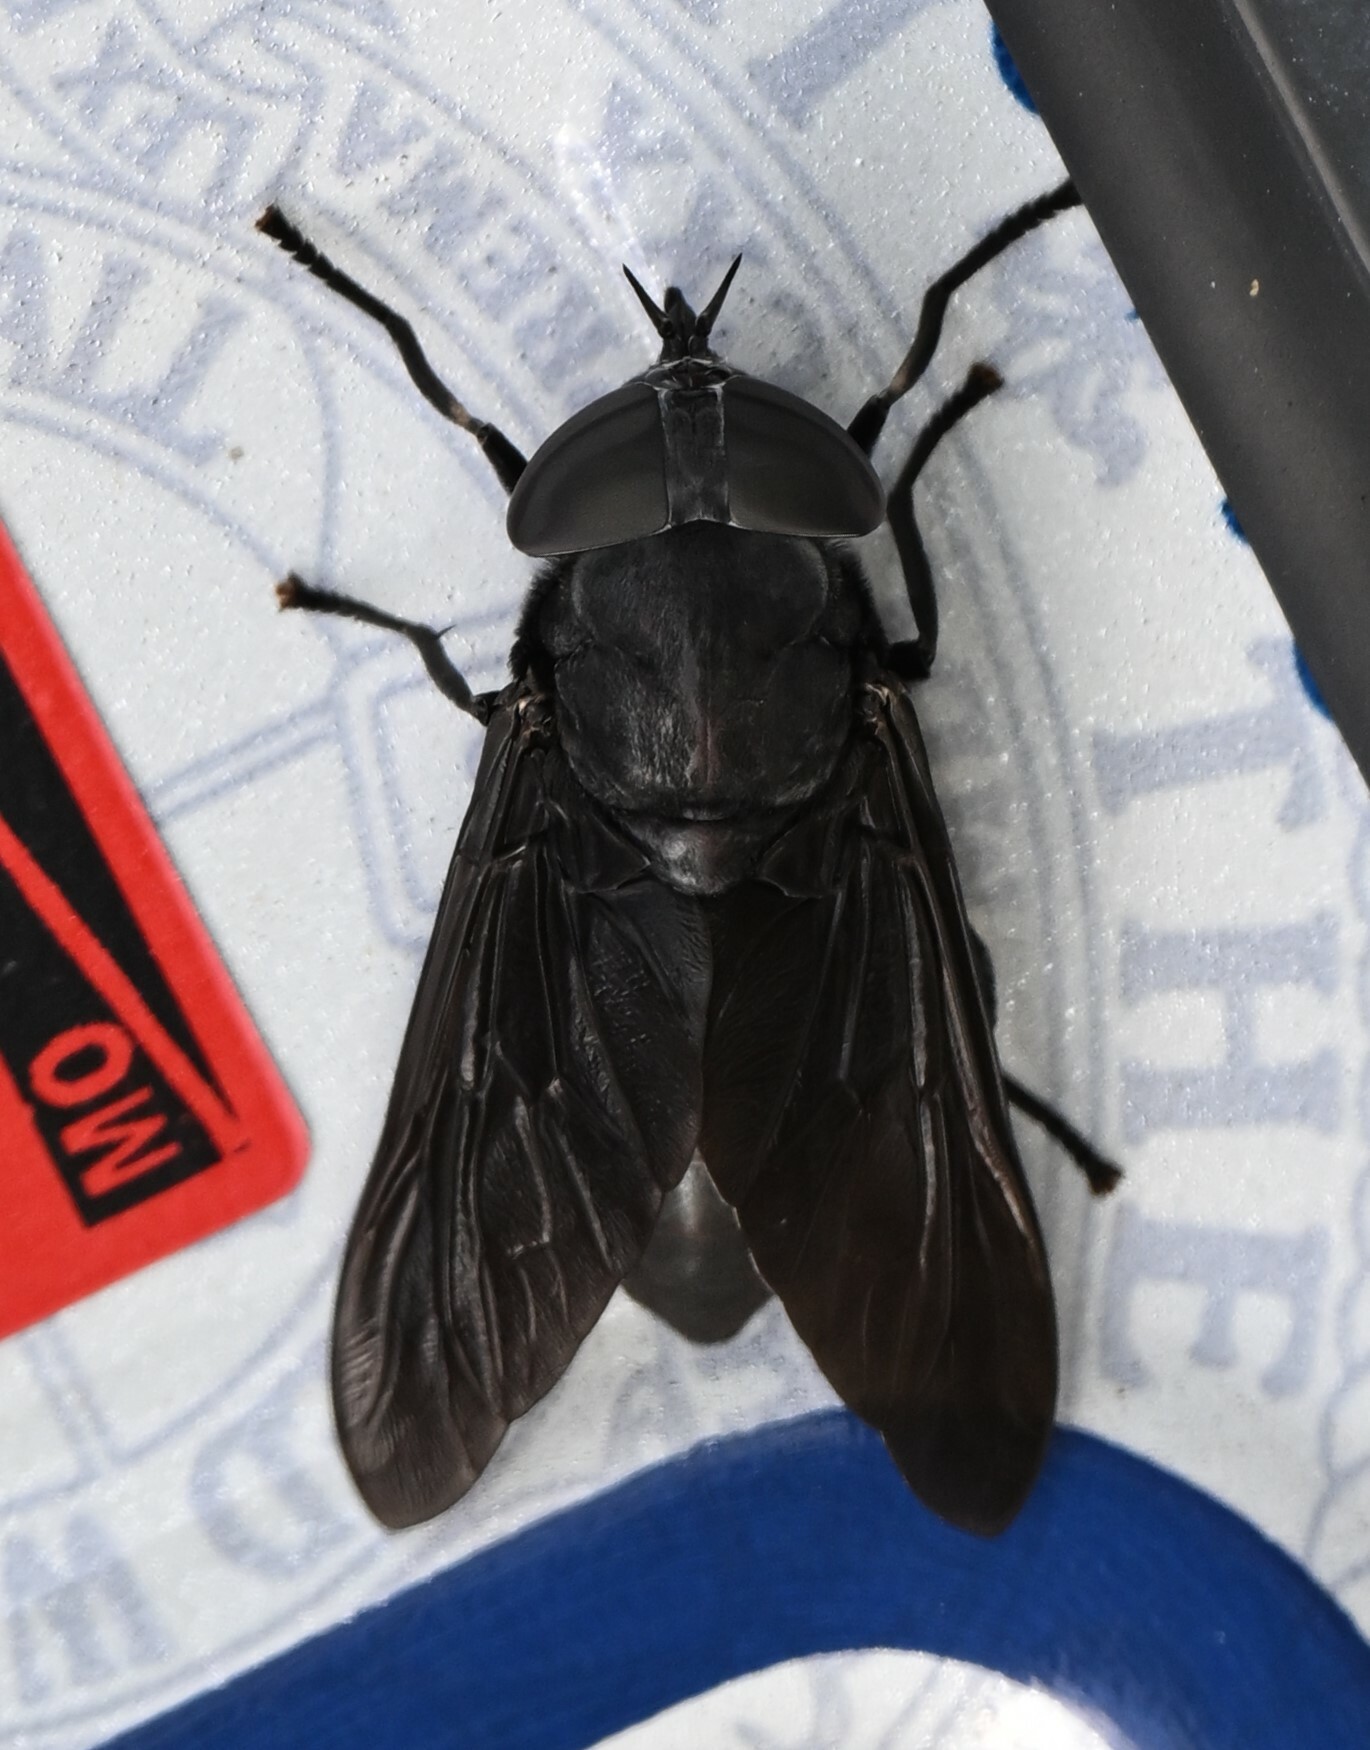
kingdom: Animalia
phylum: Arthropoda
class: Insecta
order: Diptera
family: Tabanidae
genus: Tabanus
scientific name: Tabanus atratus
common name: Black horse fly
